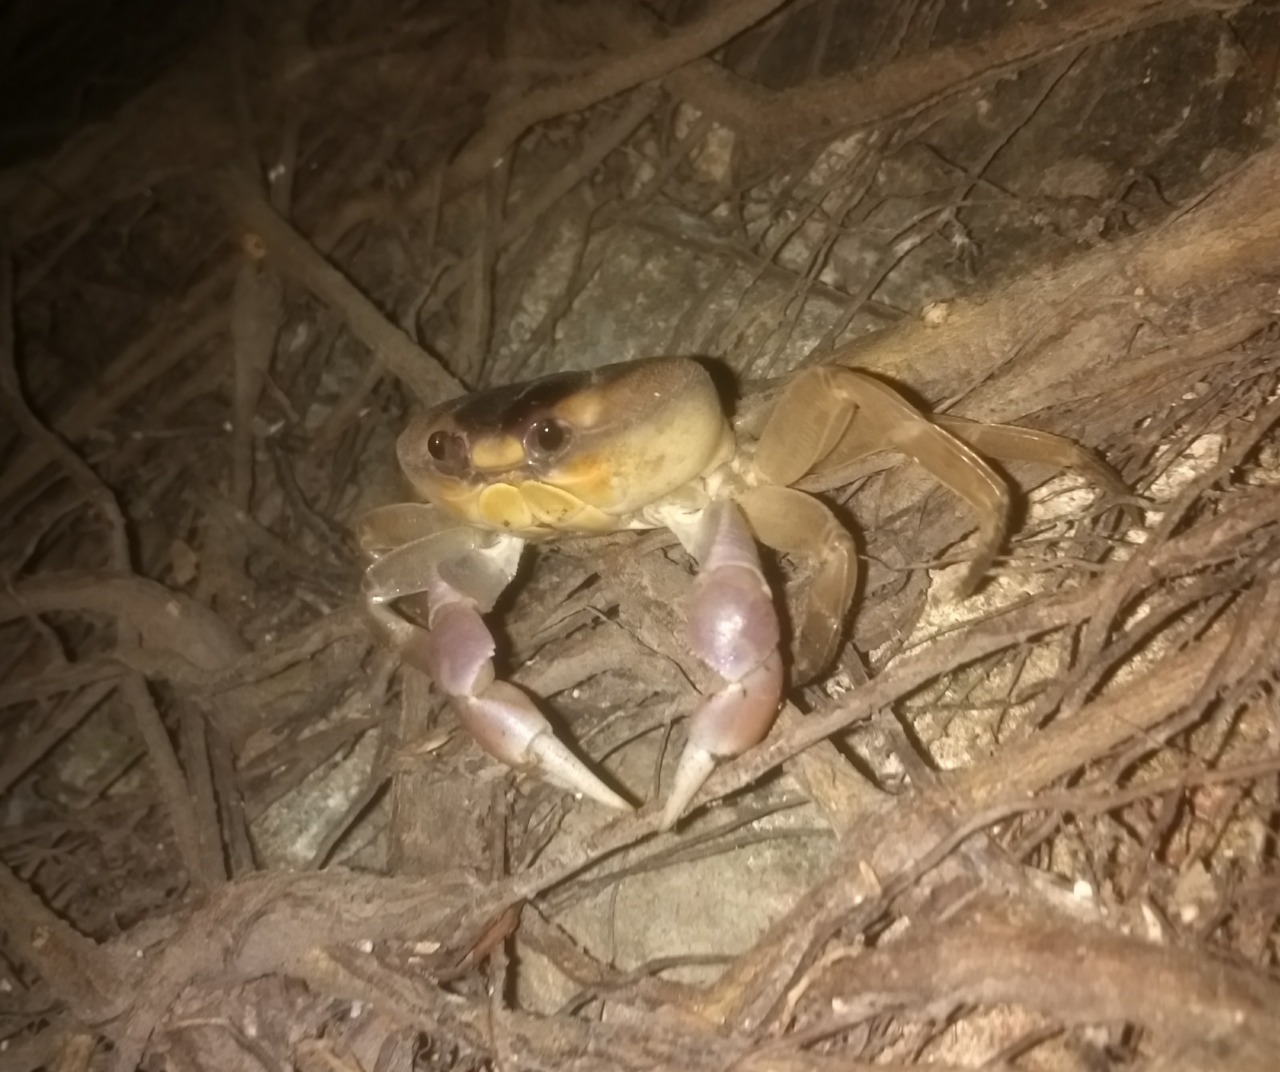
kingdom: Animalia
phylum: Arthropoda
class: Malacostraca
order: Decapoda
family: Gecarcinidae
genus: Gecarcinus
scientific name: Gecarcinus quadratus
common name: Halloween crab
